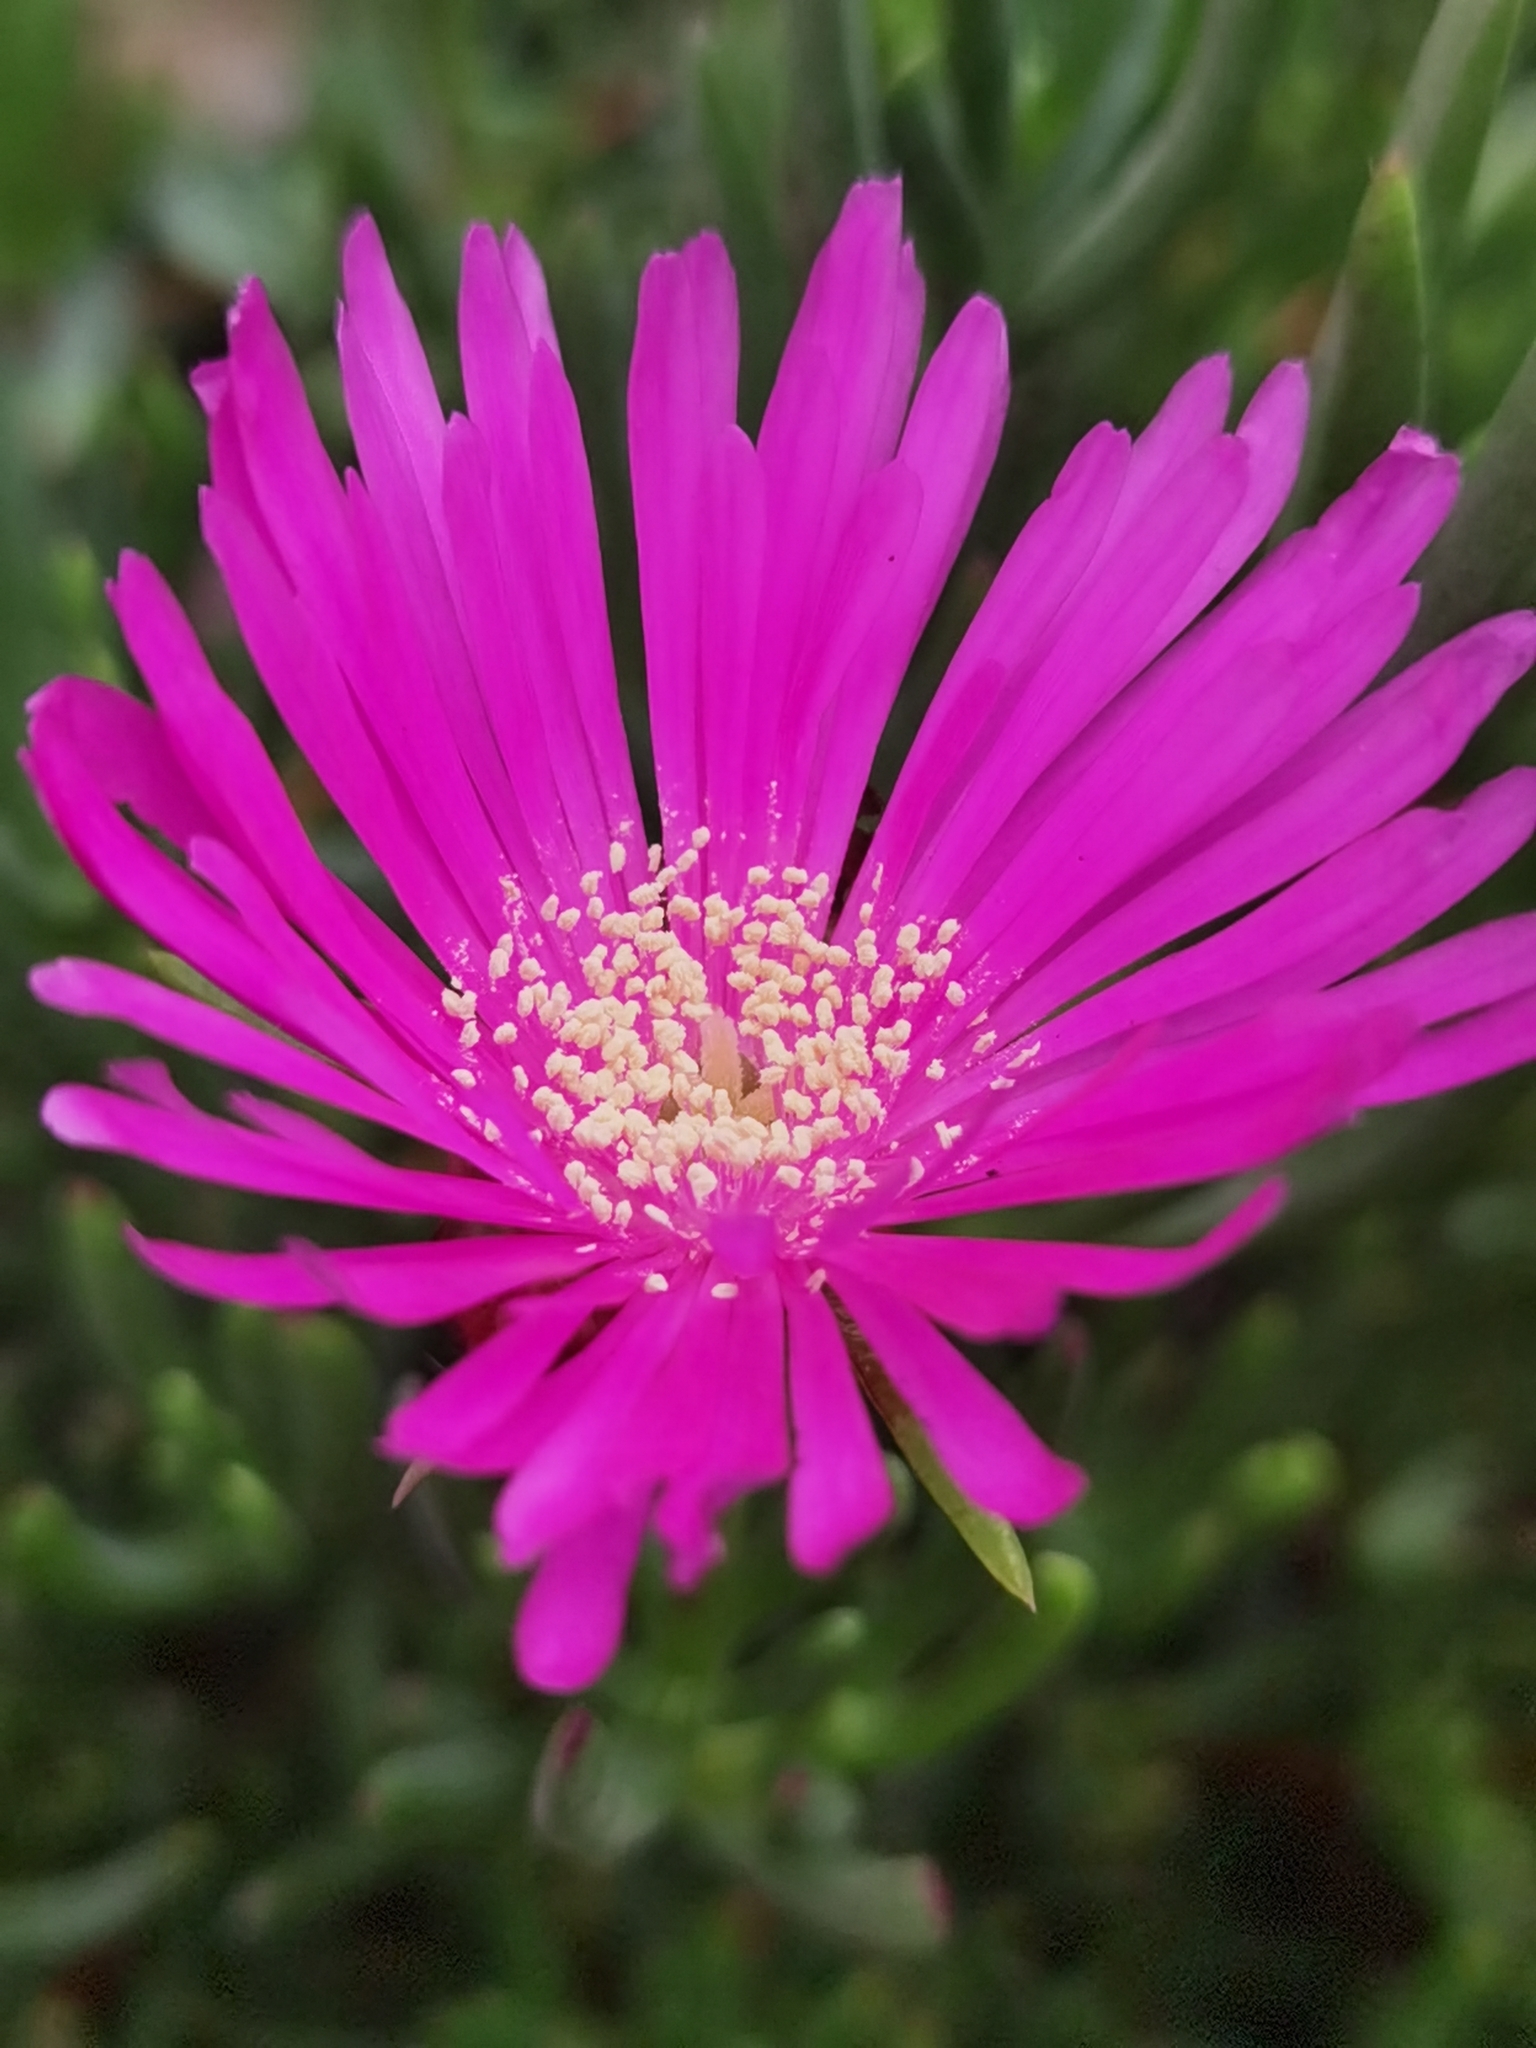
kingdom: Plantae
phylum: Tracheophyta
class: Magnoliopsida
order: Caryophyllales
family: Aizoaceae
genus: Lampranthus
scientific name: Lampranthus spectabilis
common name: Trailing iceplant
